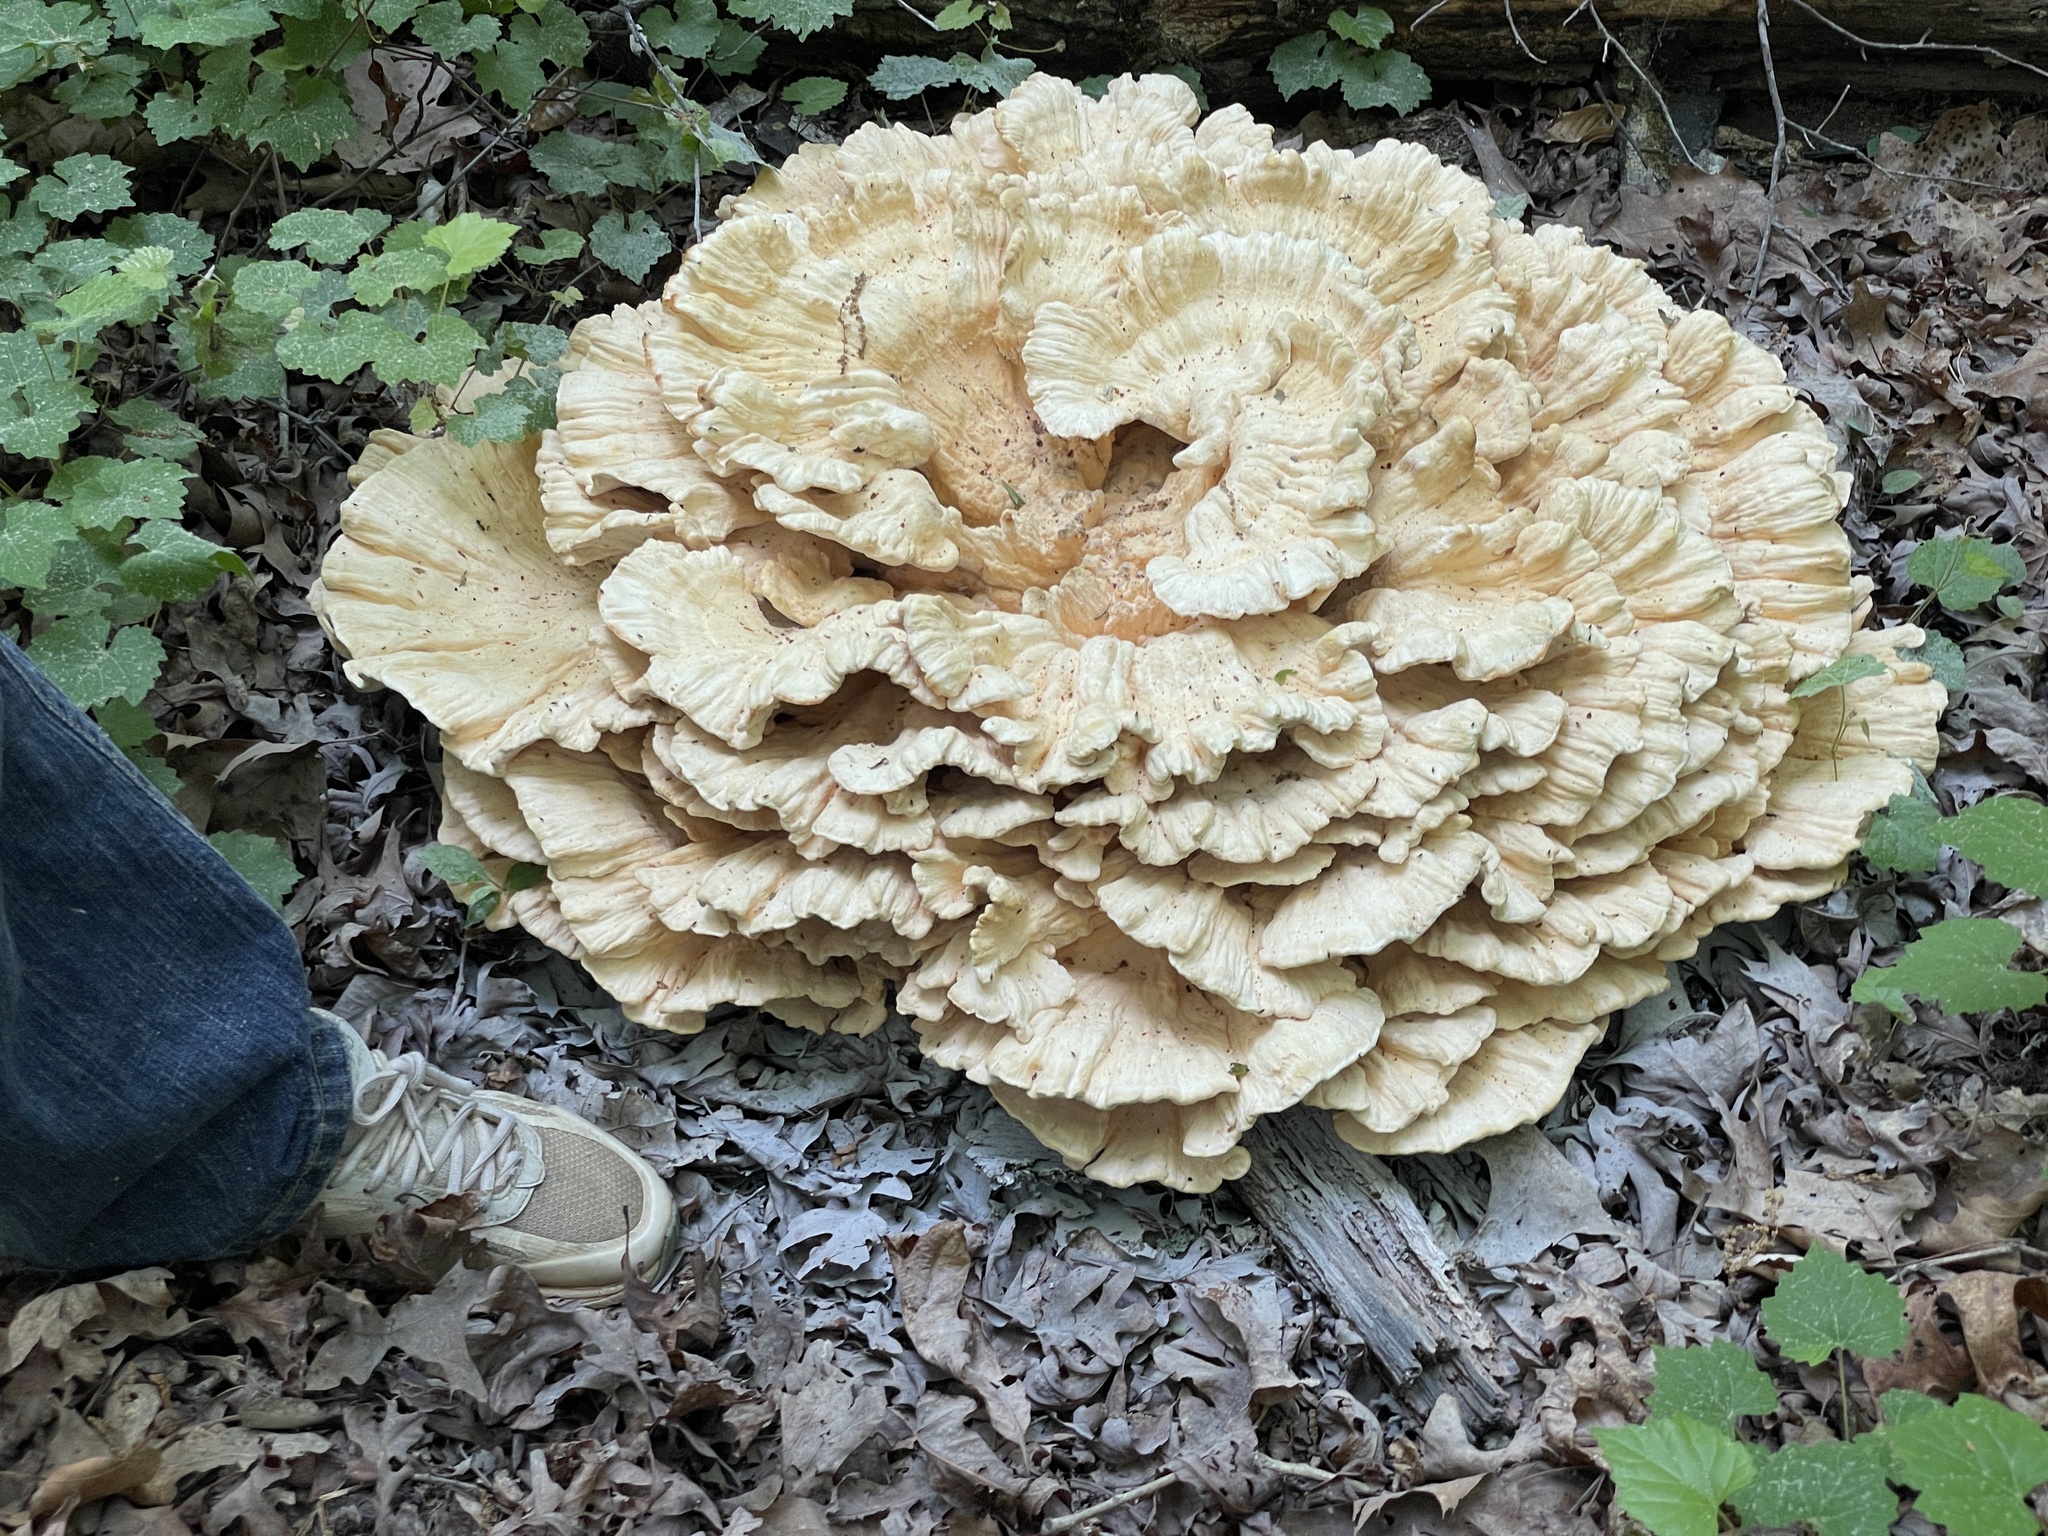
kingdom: Fungi
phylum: Basidiomycota
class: Agaricomycetes
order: Polyporales
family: Laetiporaceae
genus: Laetiporus
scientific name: Laetiporus sulphureus
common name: Chicken of the woods
